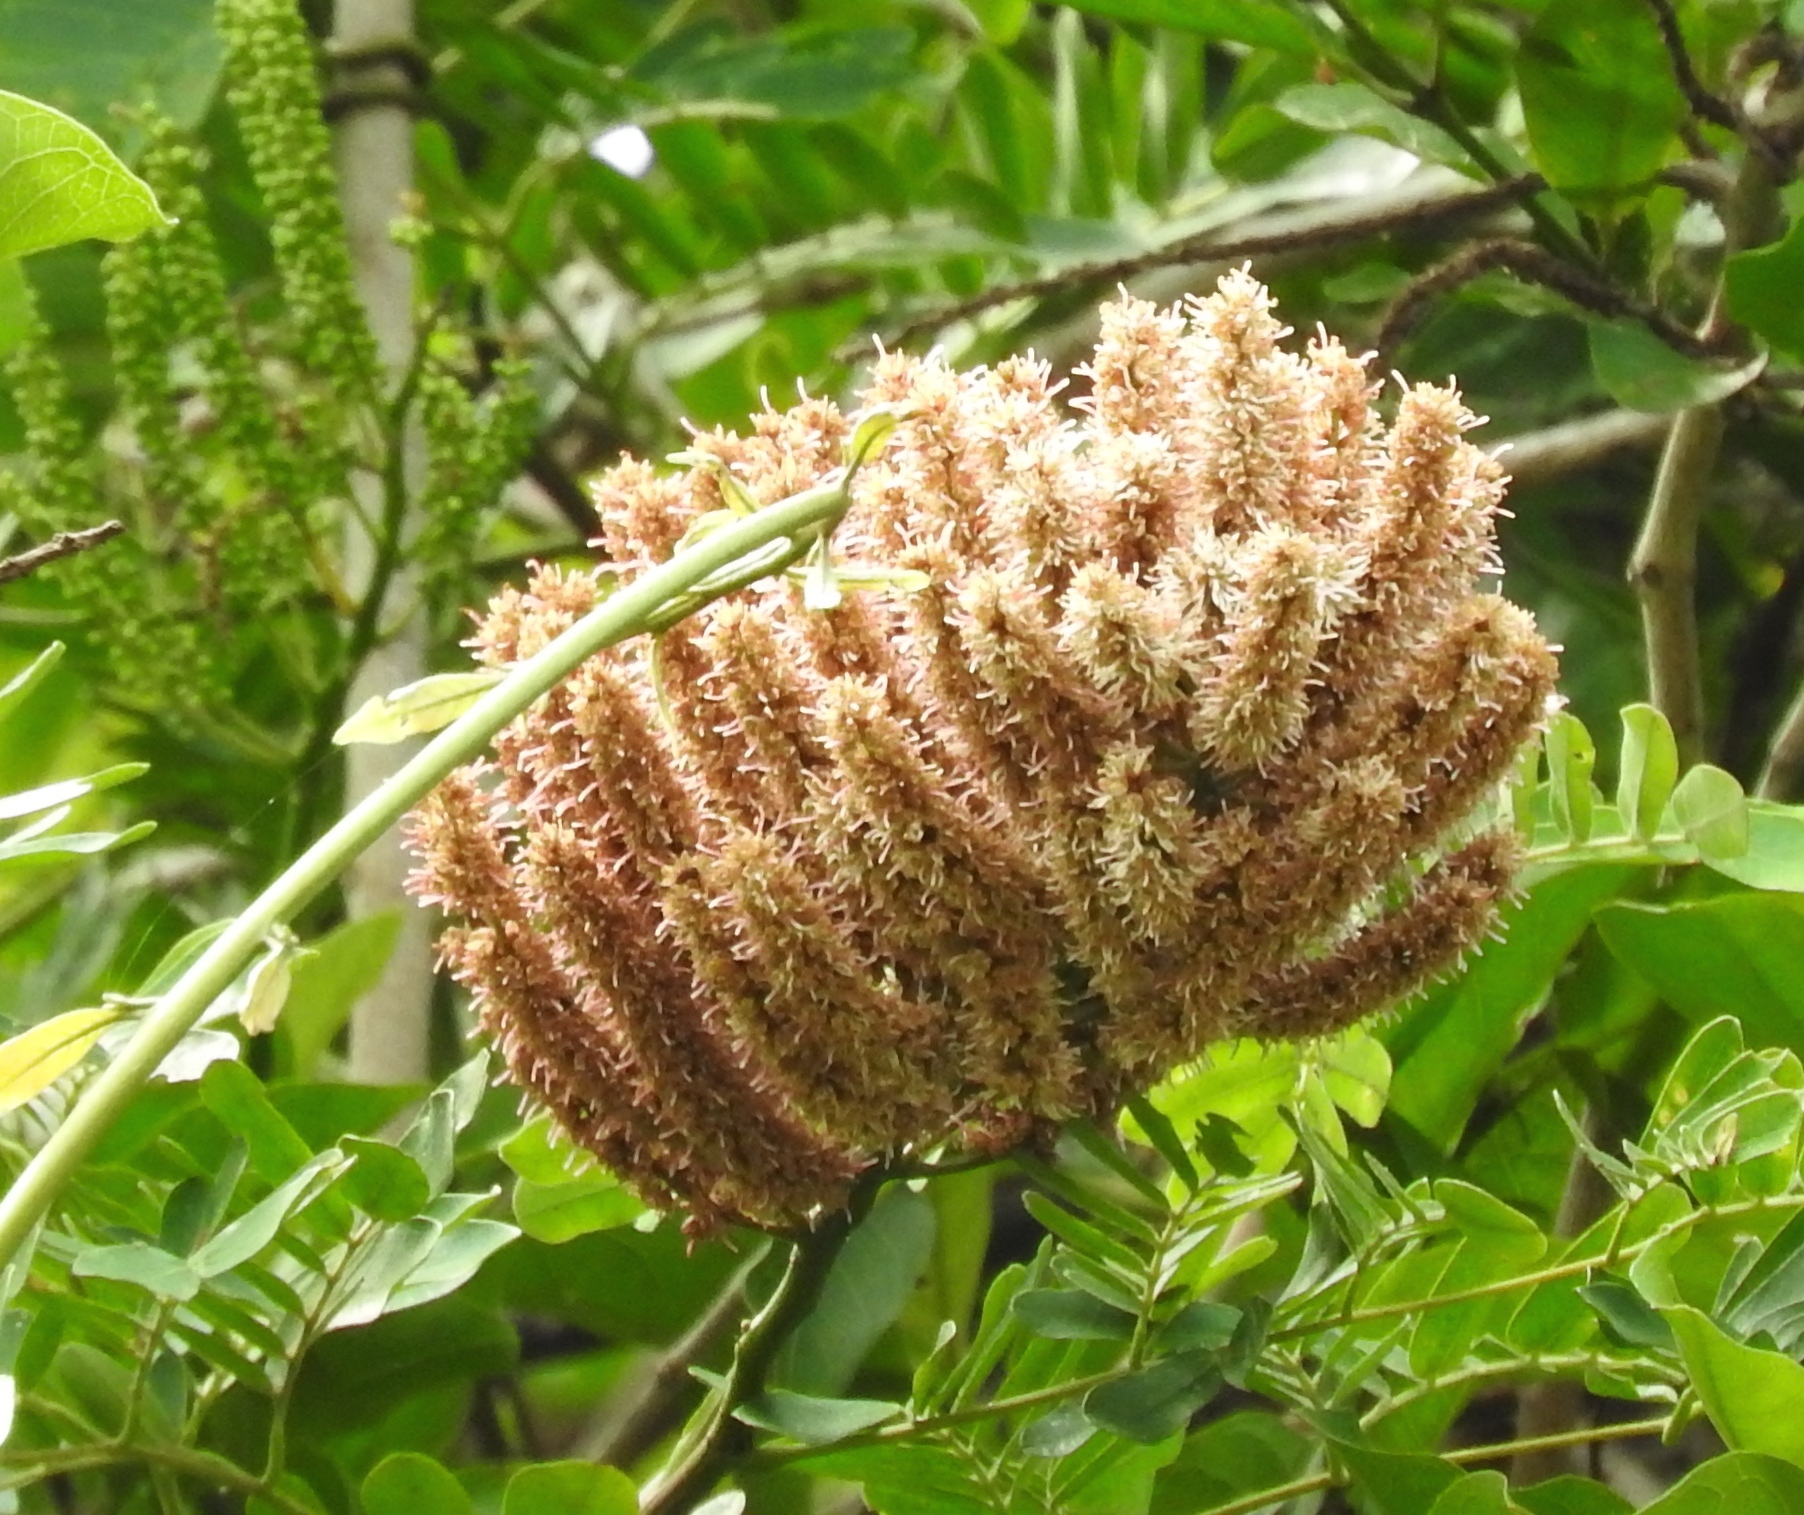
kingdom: Plantae
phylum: Tracheophyta
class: Magnoliopsida
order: Fabales
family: Fabaceae
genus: Entada
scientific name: Entada polystachya
